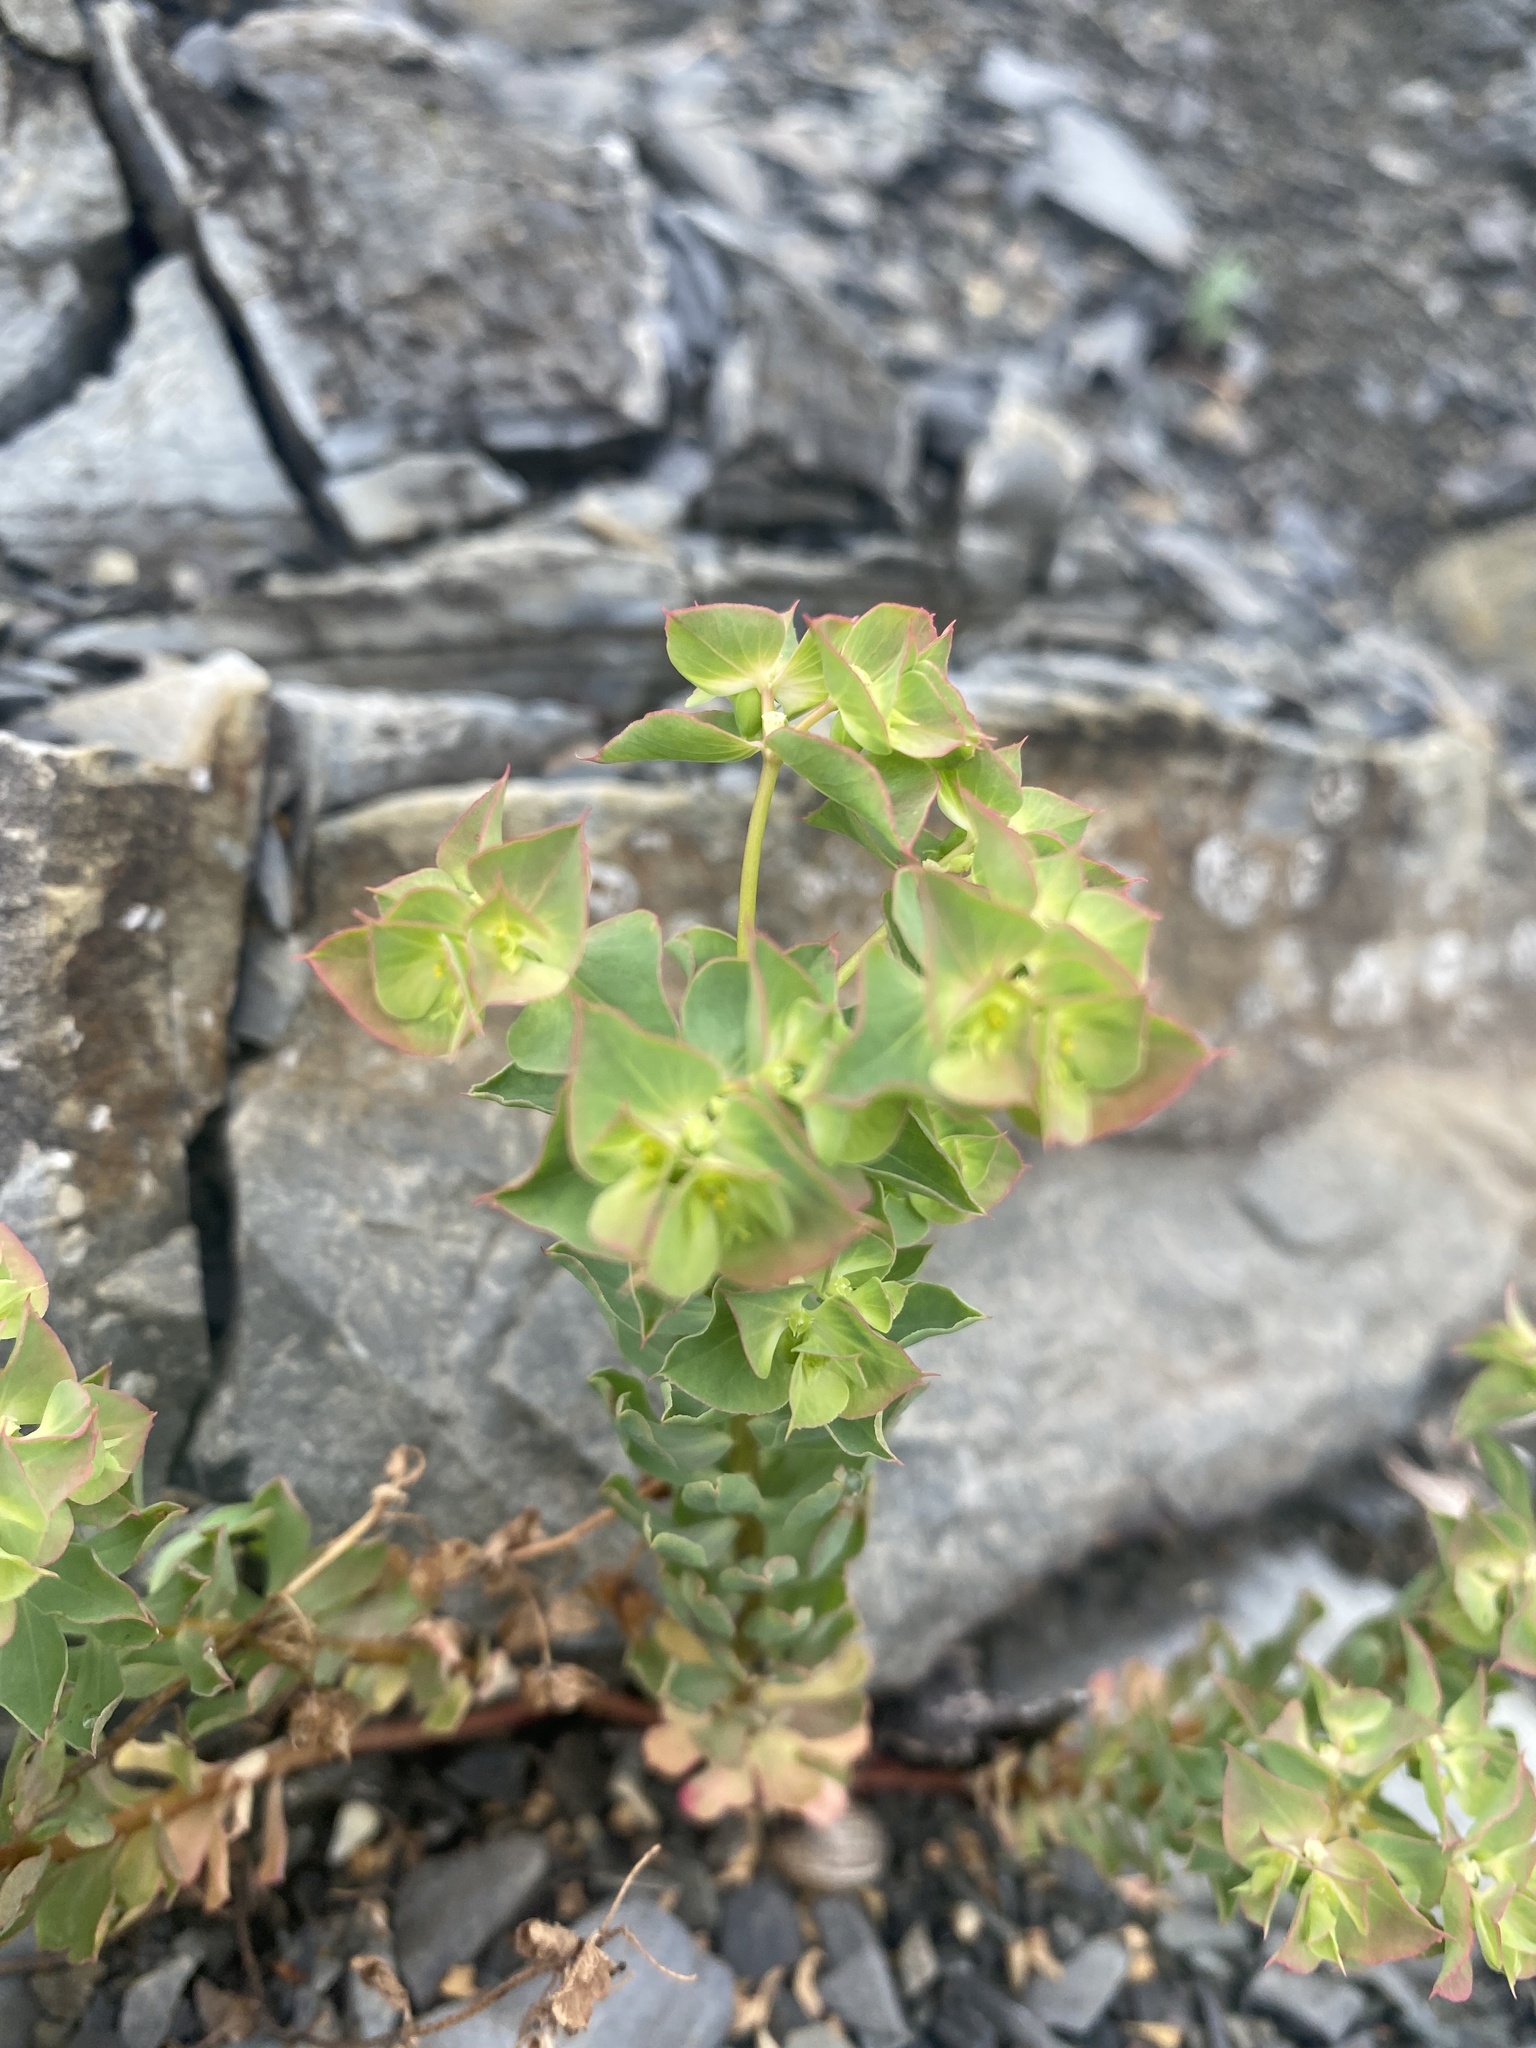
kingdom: Plantae
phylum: Tracheophyta
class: Magnoliopsida
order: Malpighiales
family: Euphorbiaceae
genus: Euphorbia
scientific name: Euphorbia falcata
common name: Sickle spurge
